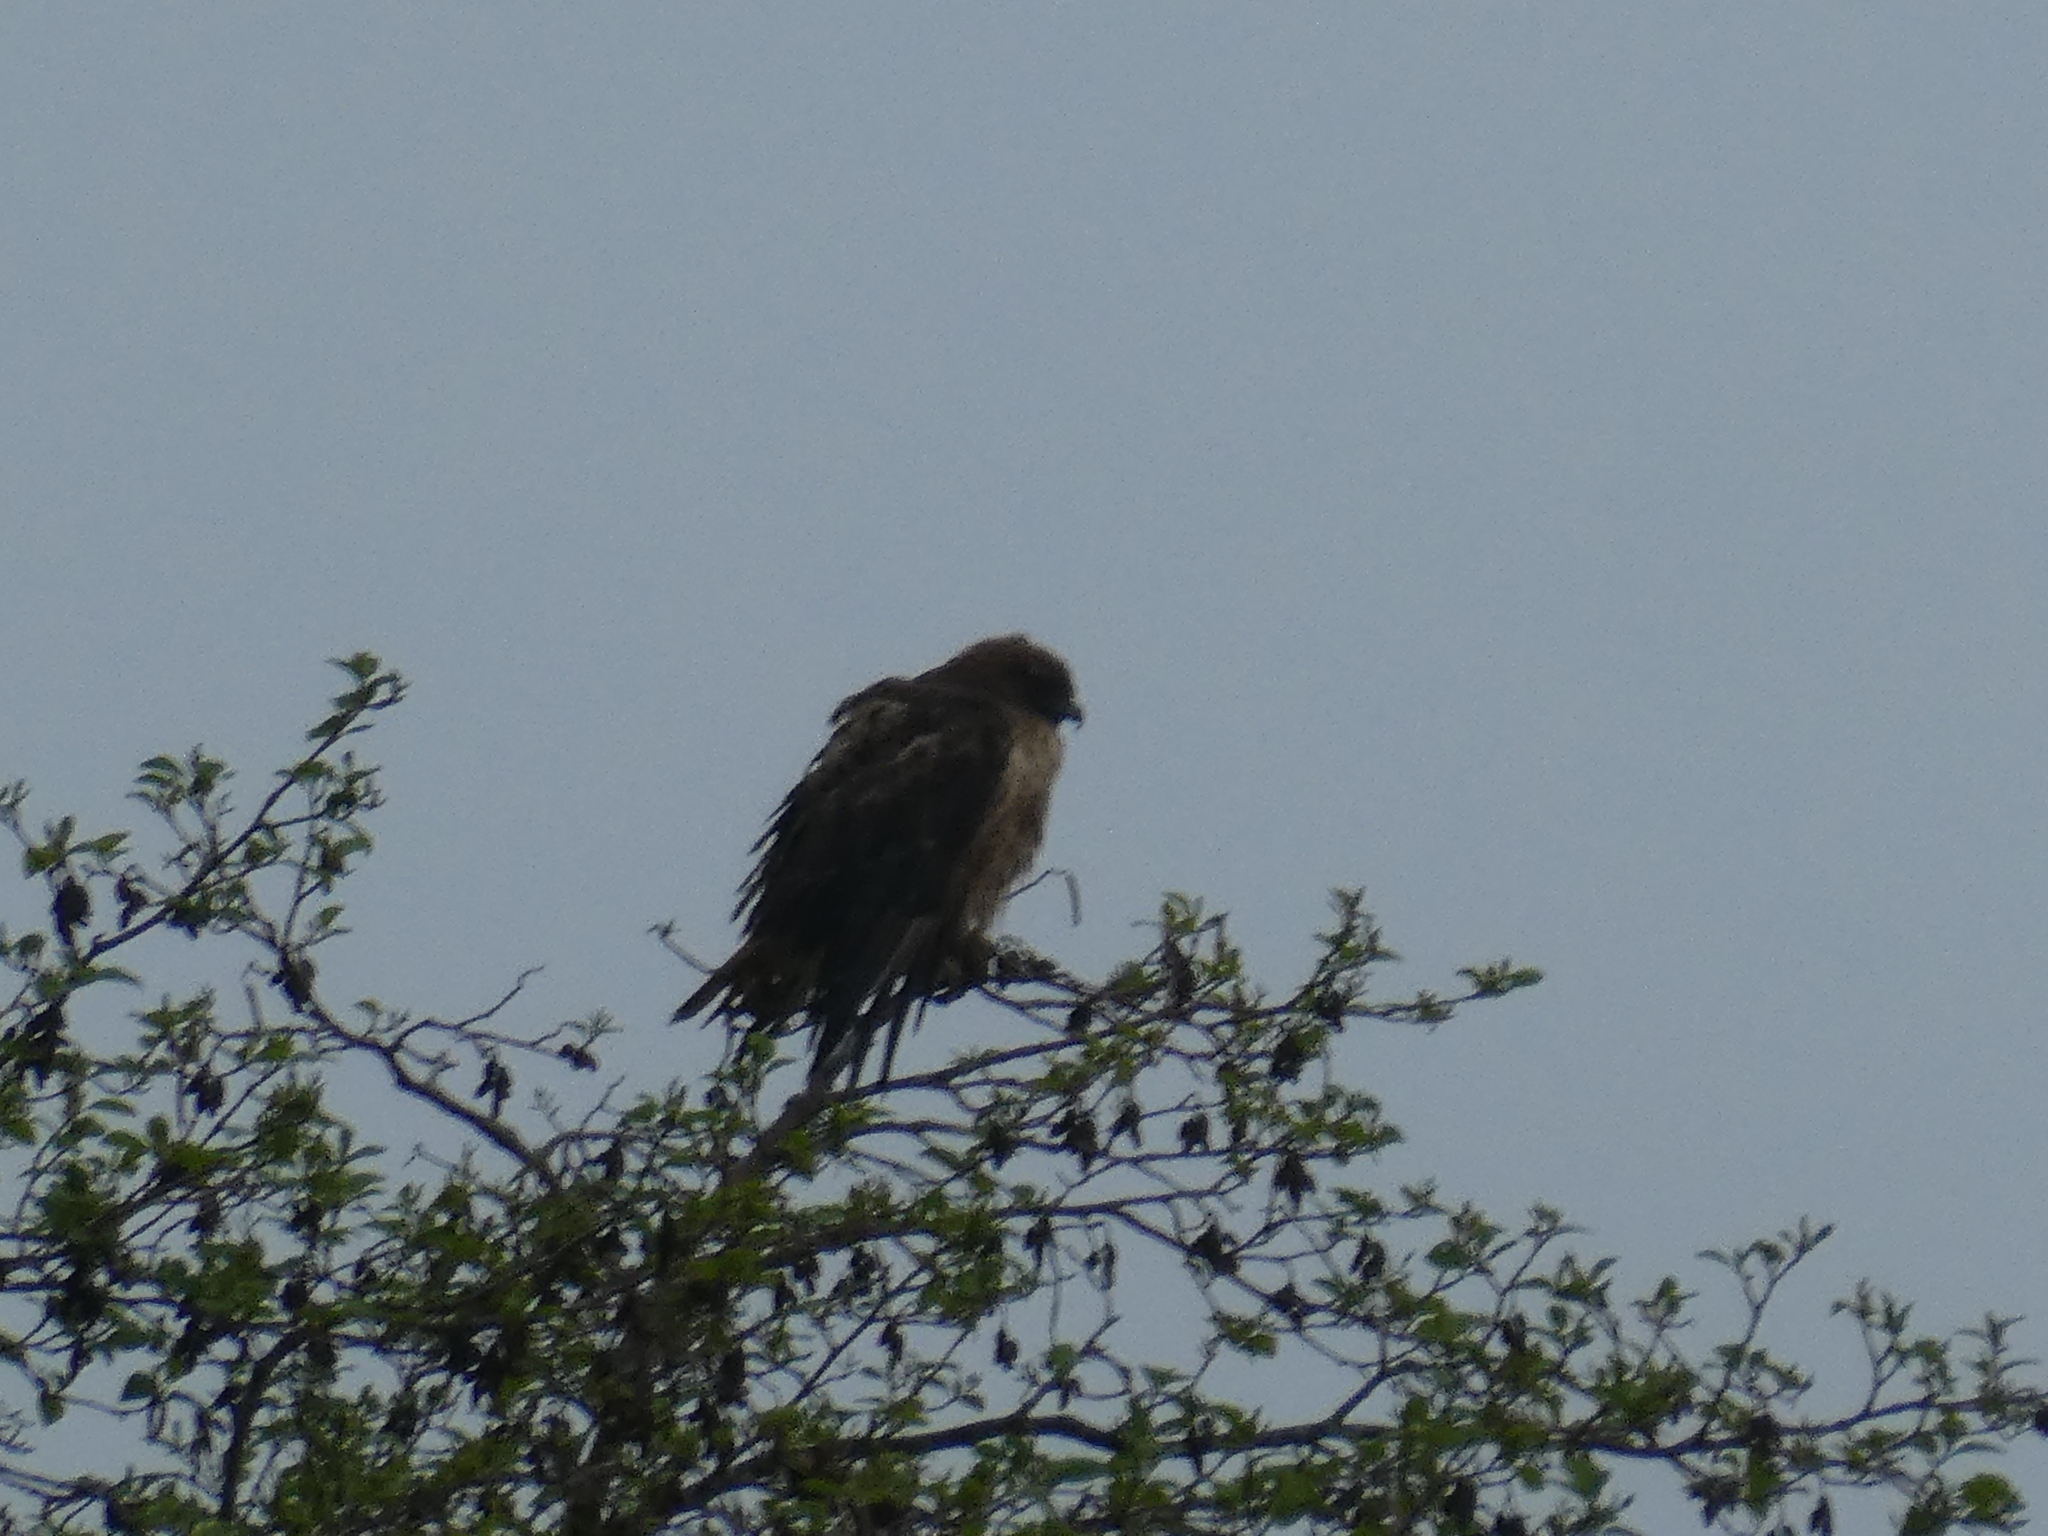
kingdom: Animalia
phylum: Chordata
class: Aves
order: Accipitriformes
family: Accipitridae
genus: Buteo
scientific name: Buteo jamaicensis
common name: Red-tailed hawk
